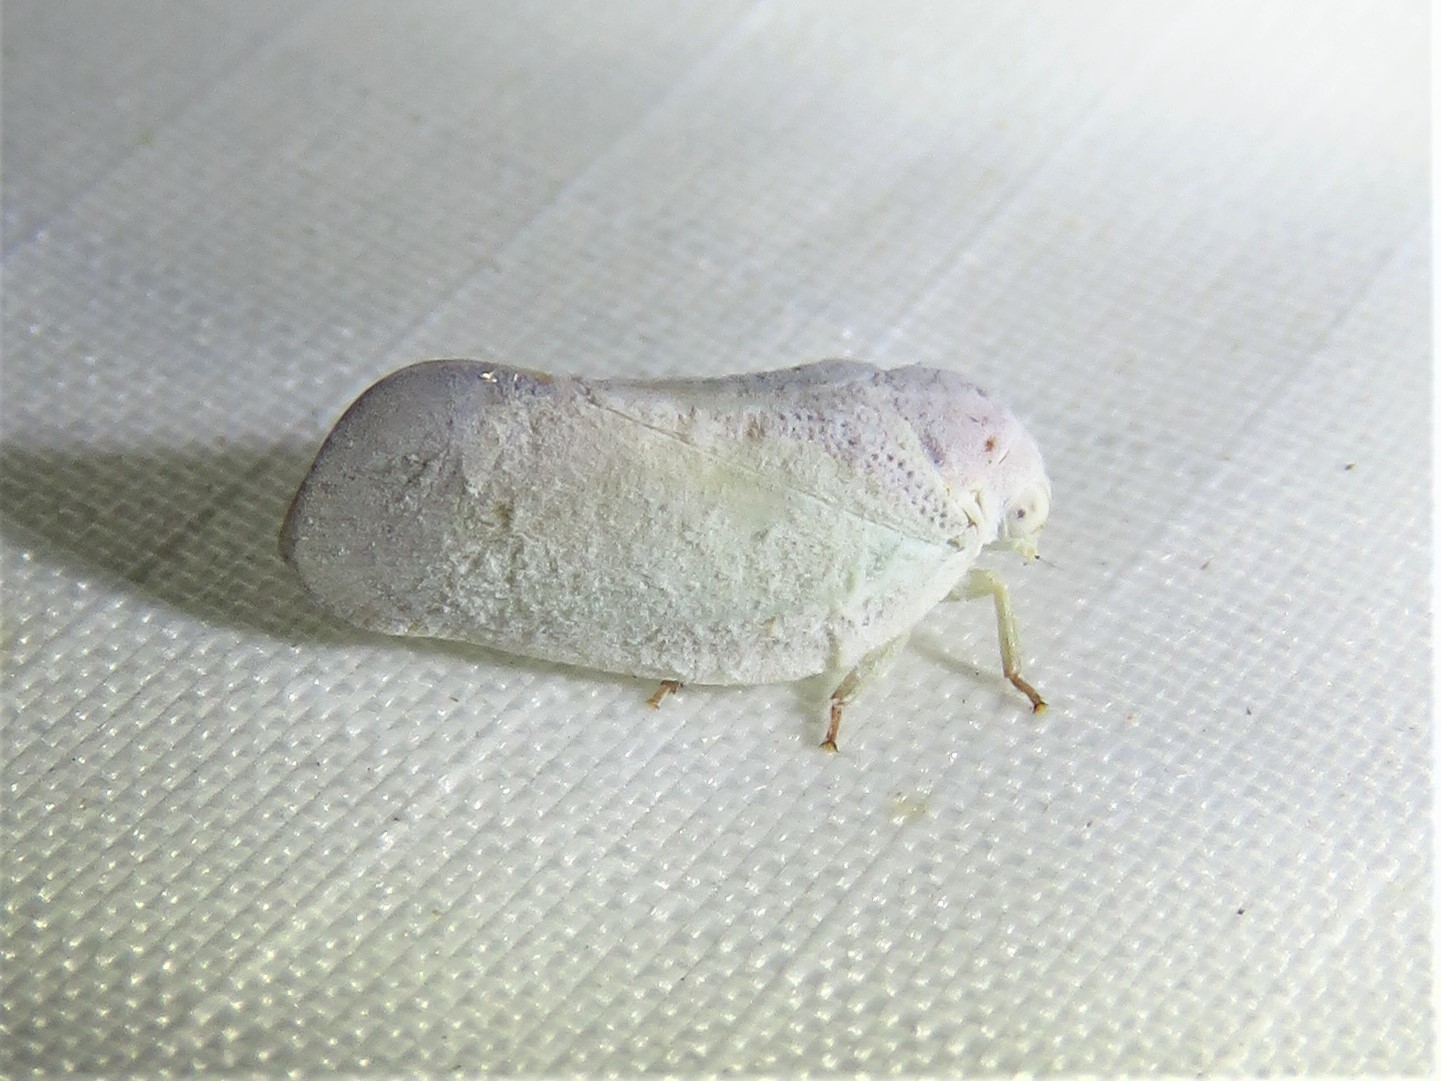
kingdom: Animalia
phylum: Arthropoda
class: Insecta
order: Hemiptera
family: Flatidae
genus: Flatormenis
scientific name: Flatormenis saucia
